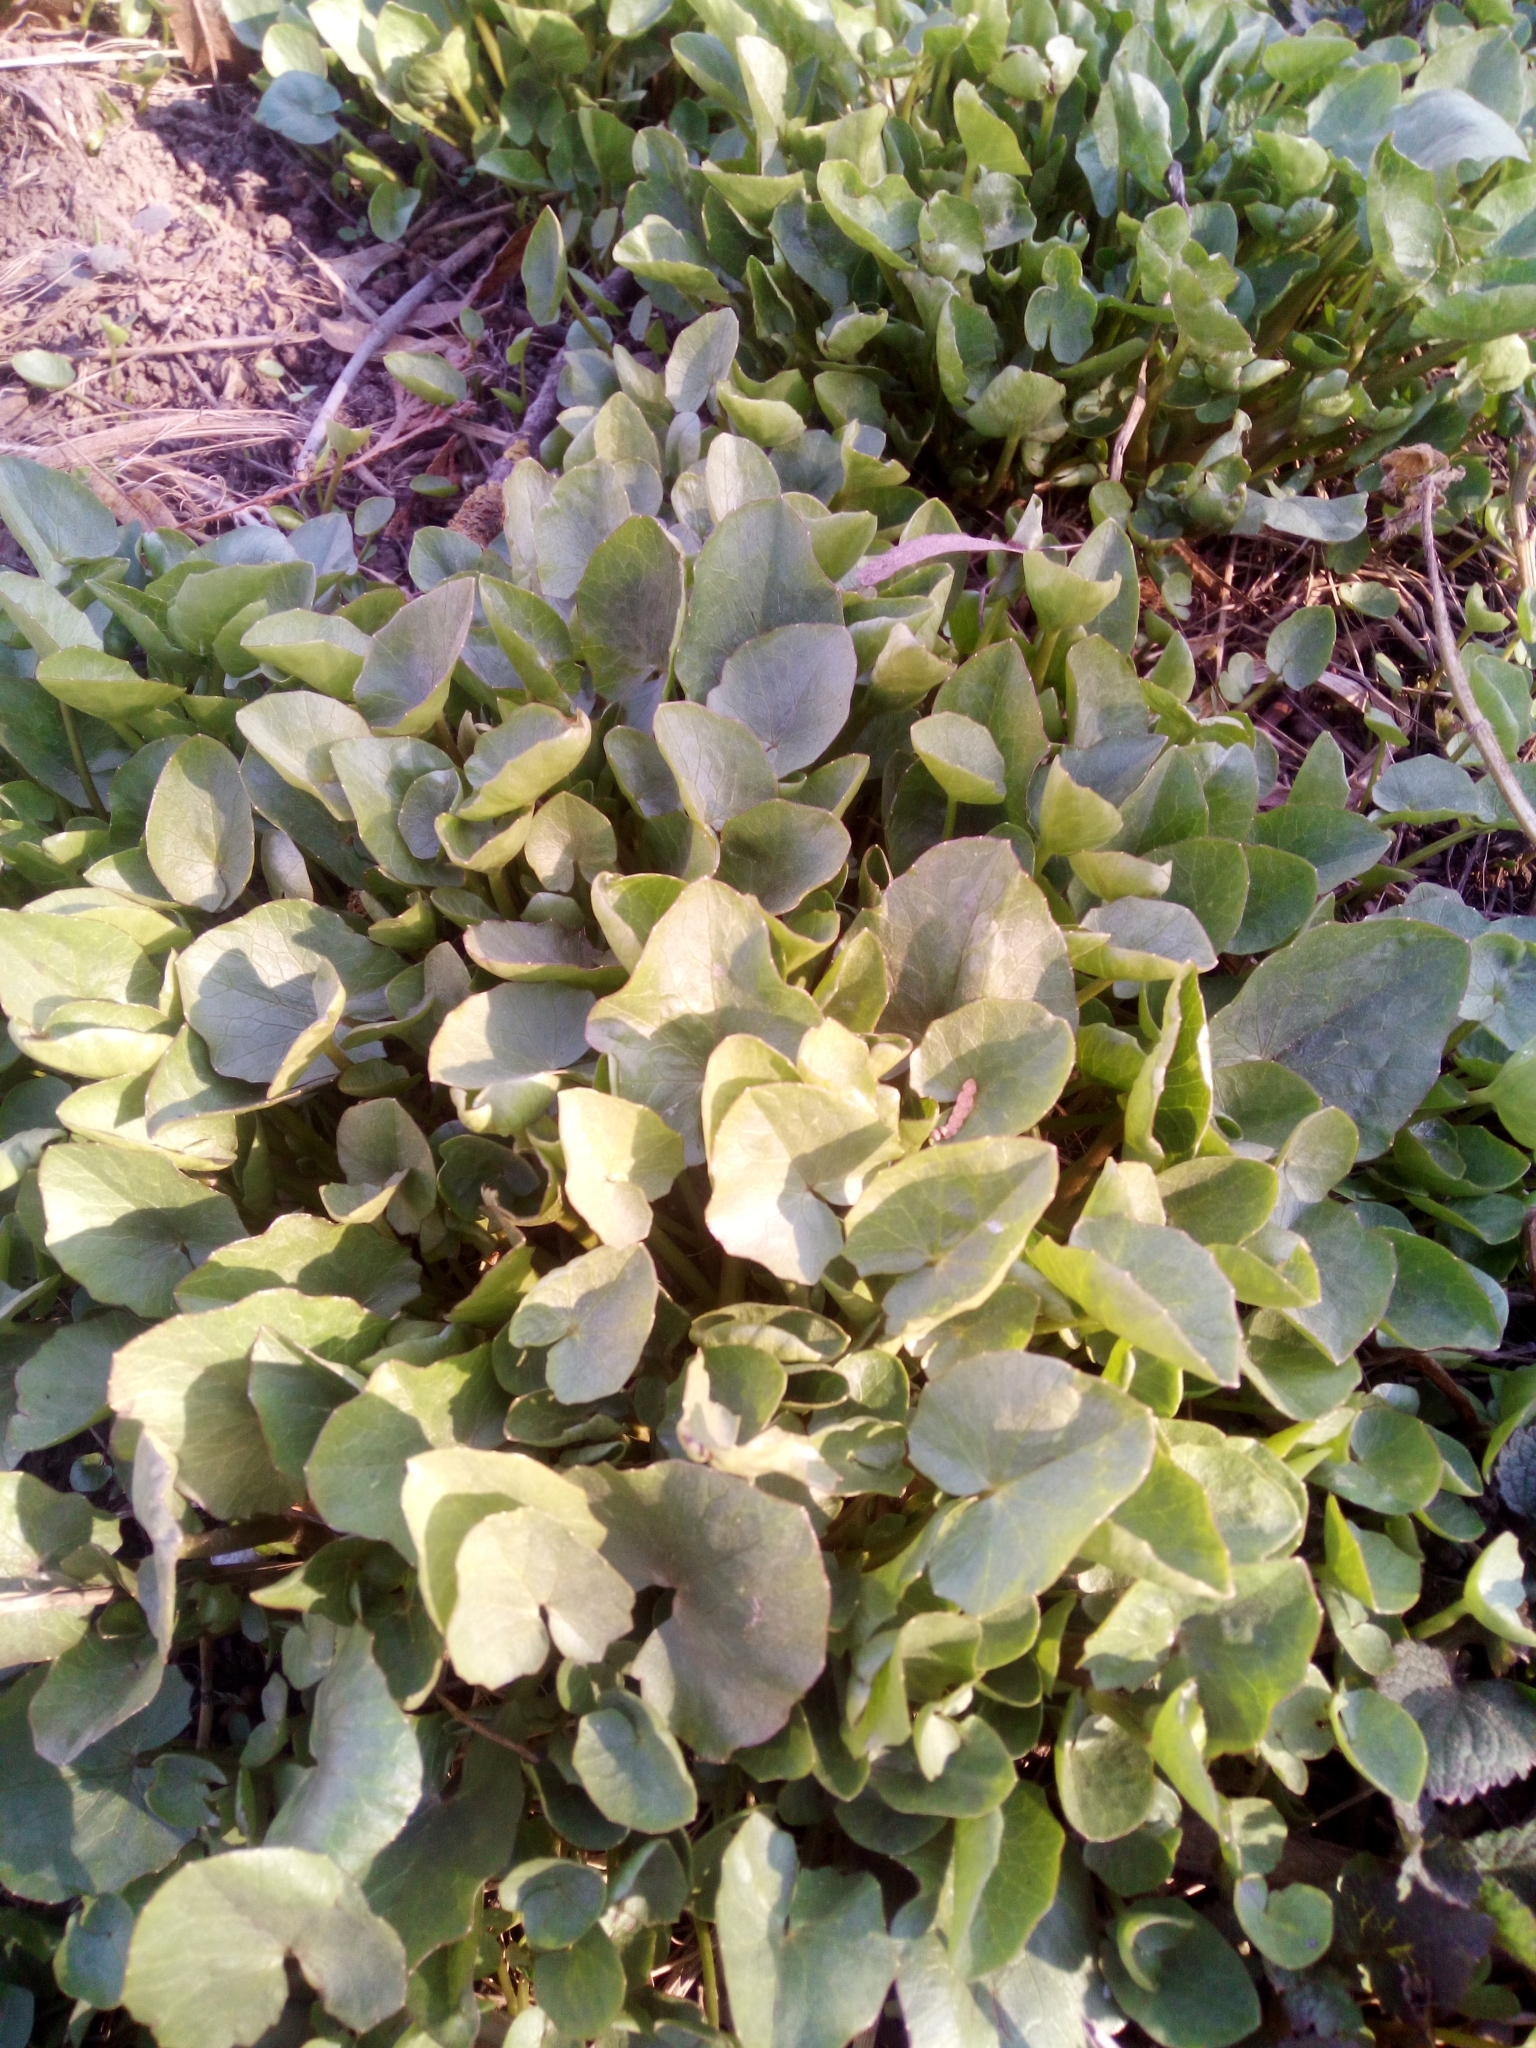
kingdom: Plantae
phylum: Tracheophyta
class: Magnoliopsida
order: Ranunculales
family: Ranunculaceae
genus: Ficaria
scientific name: Ficaria verna
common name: Lesser celandine
